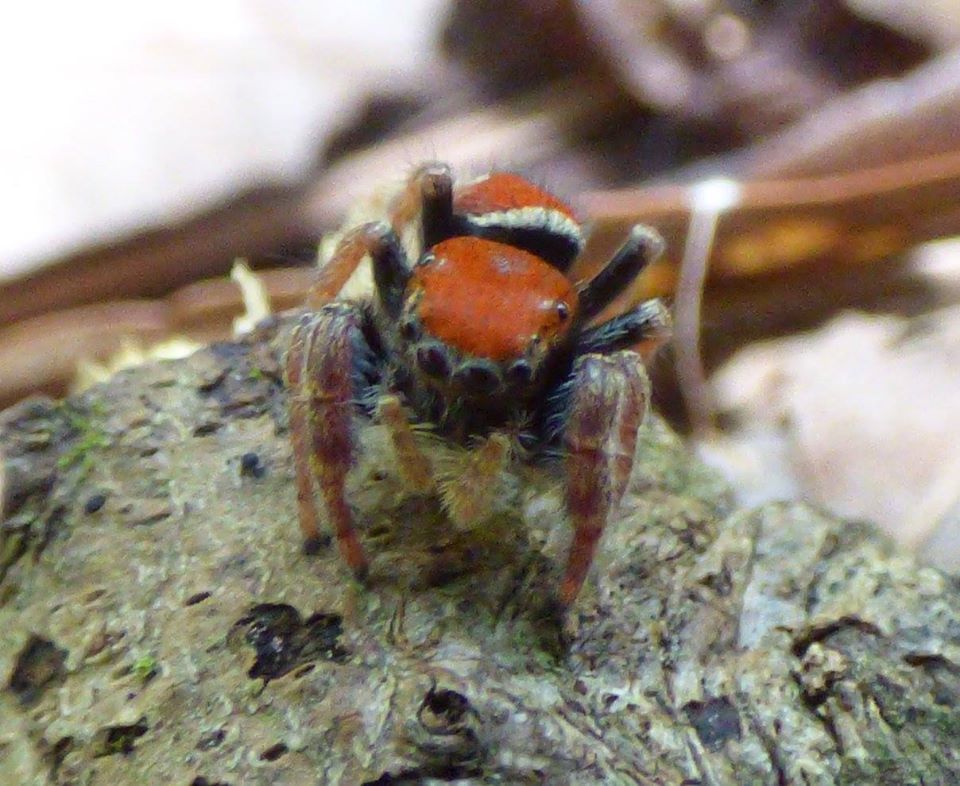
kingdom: Animalia
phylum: Arthropoda
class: Arachnida
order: Araneae
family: Salticidae
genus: Phidippus
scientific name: Phidippus whitmani
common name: Whitman's jumping spider
